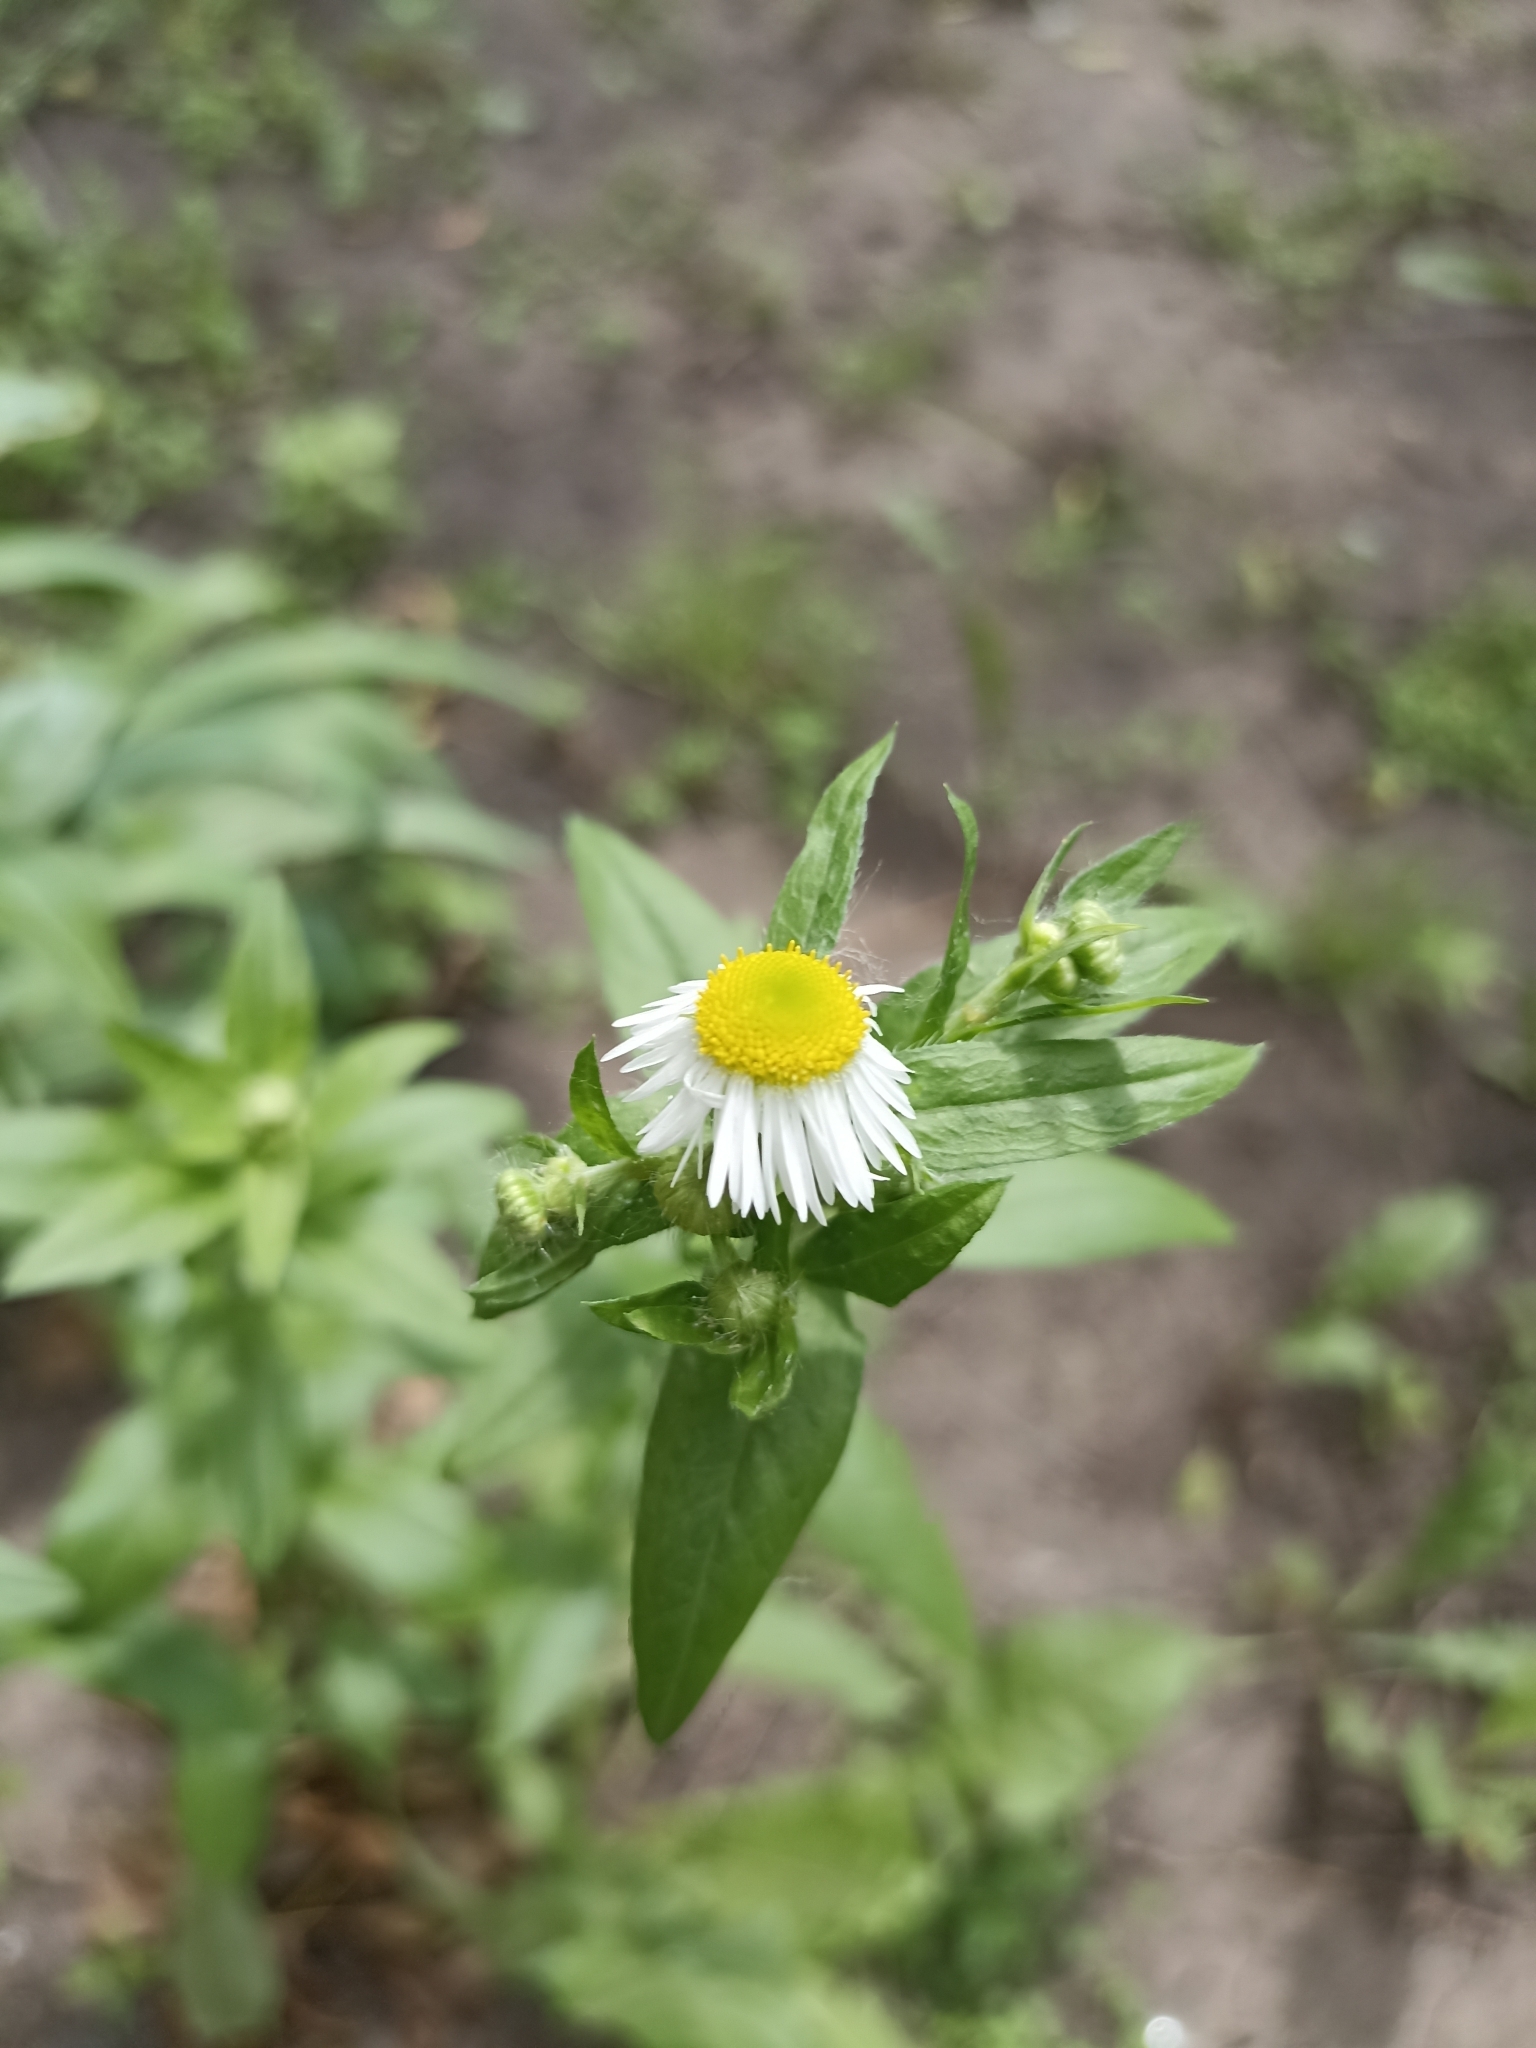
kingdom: Plantae
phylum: Tracheophyta
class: Magnoliopsida
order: Asterales
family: Asteraceae
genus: Erigeron
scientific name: Erigeron annuus
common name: Tall fleabane
